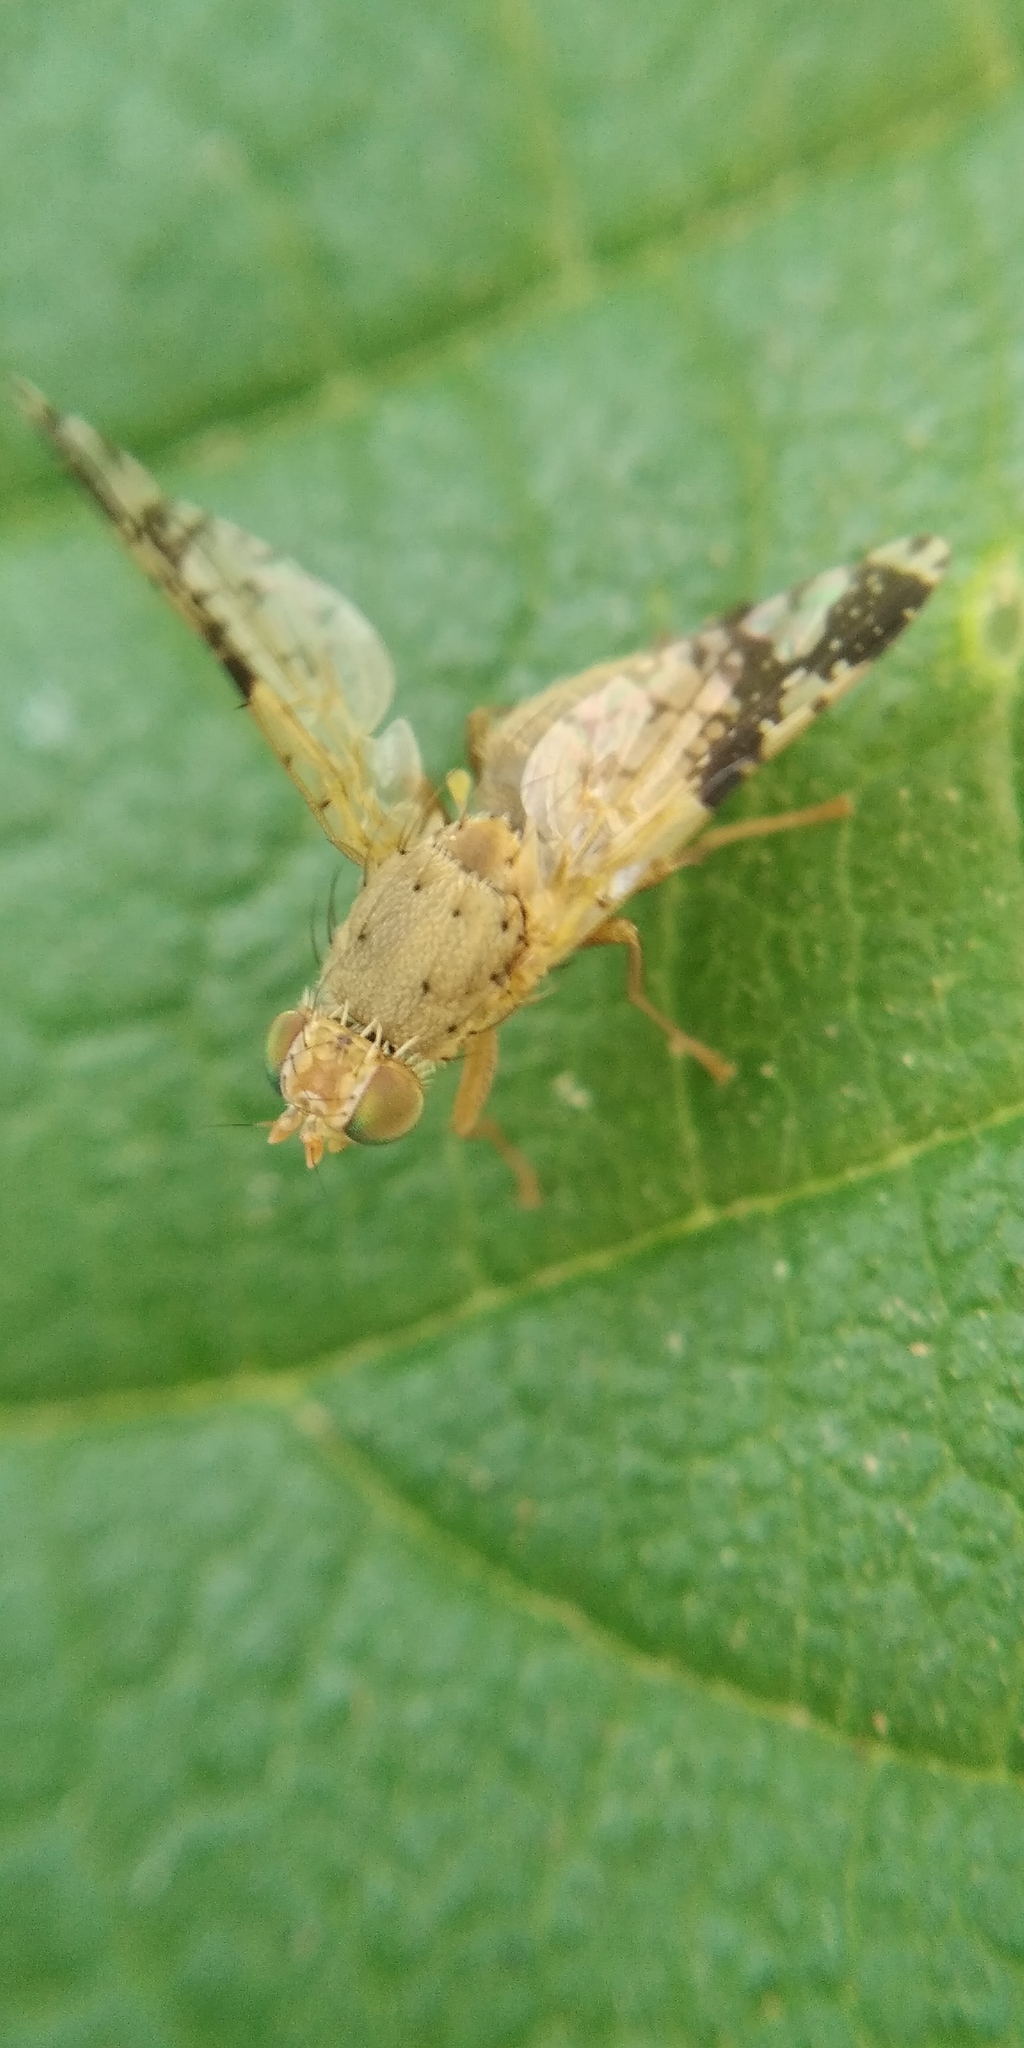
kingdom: Animalia
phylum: Arthropoda
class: Insecta
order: Diptera
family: Tephritidae
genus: Tephritis
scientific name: Tephritis bardanae
